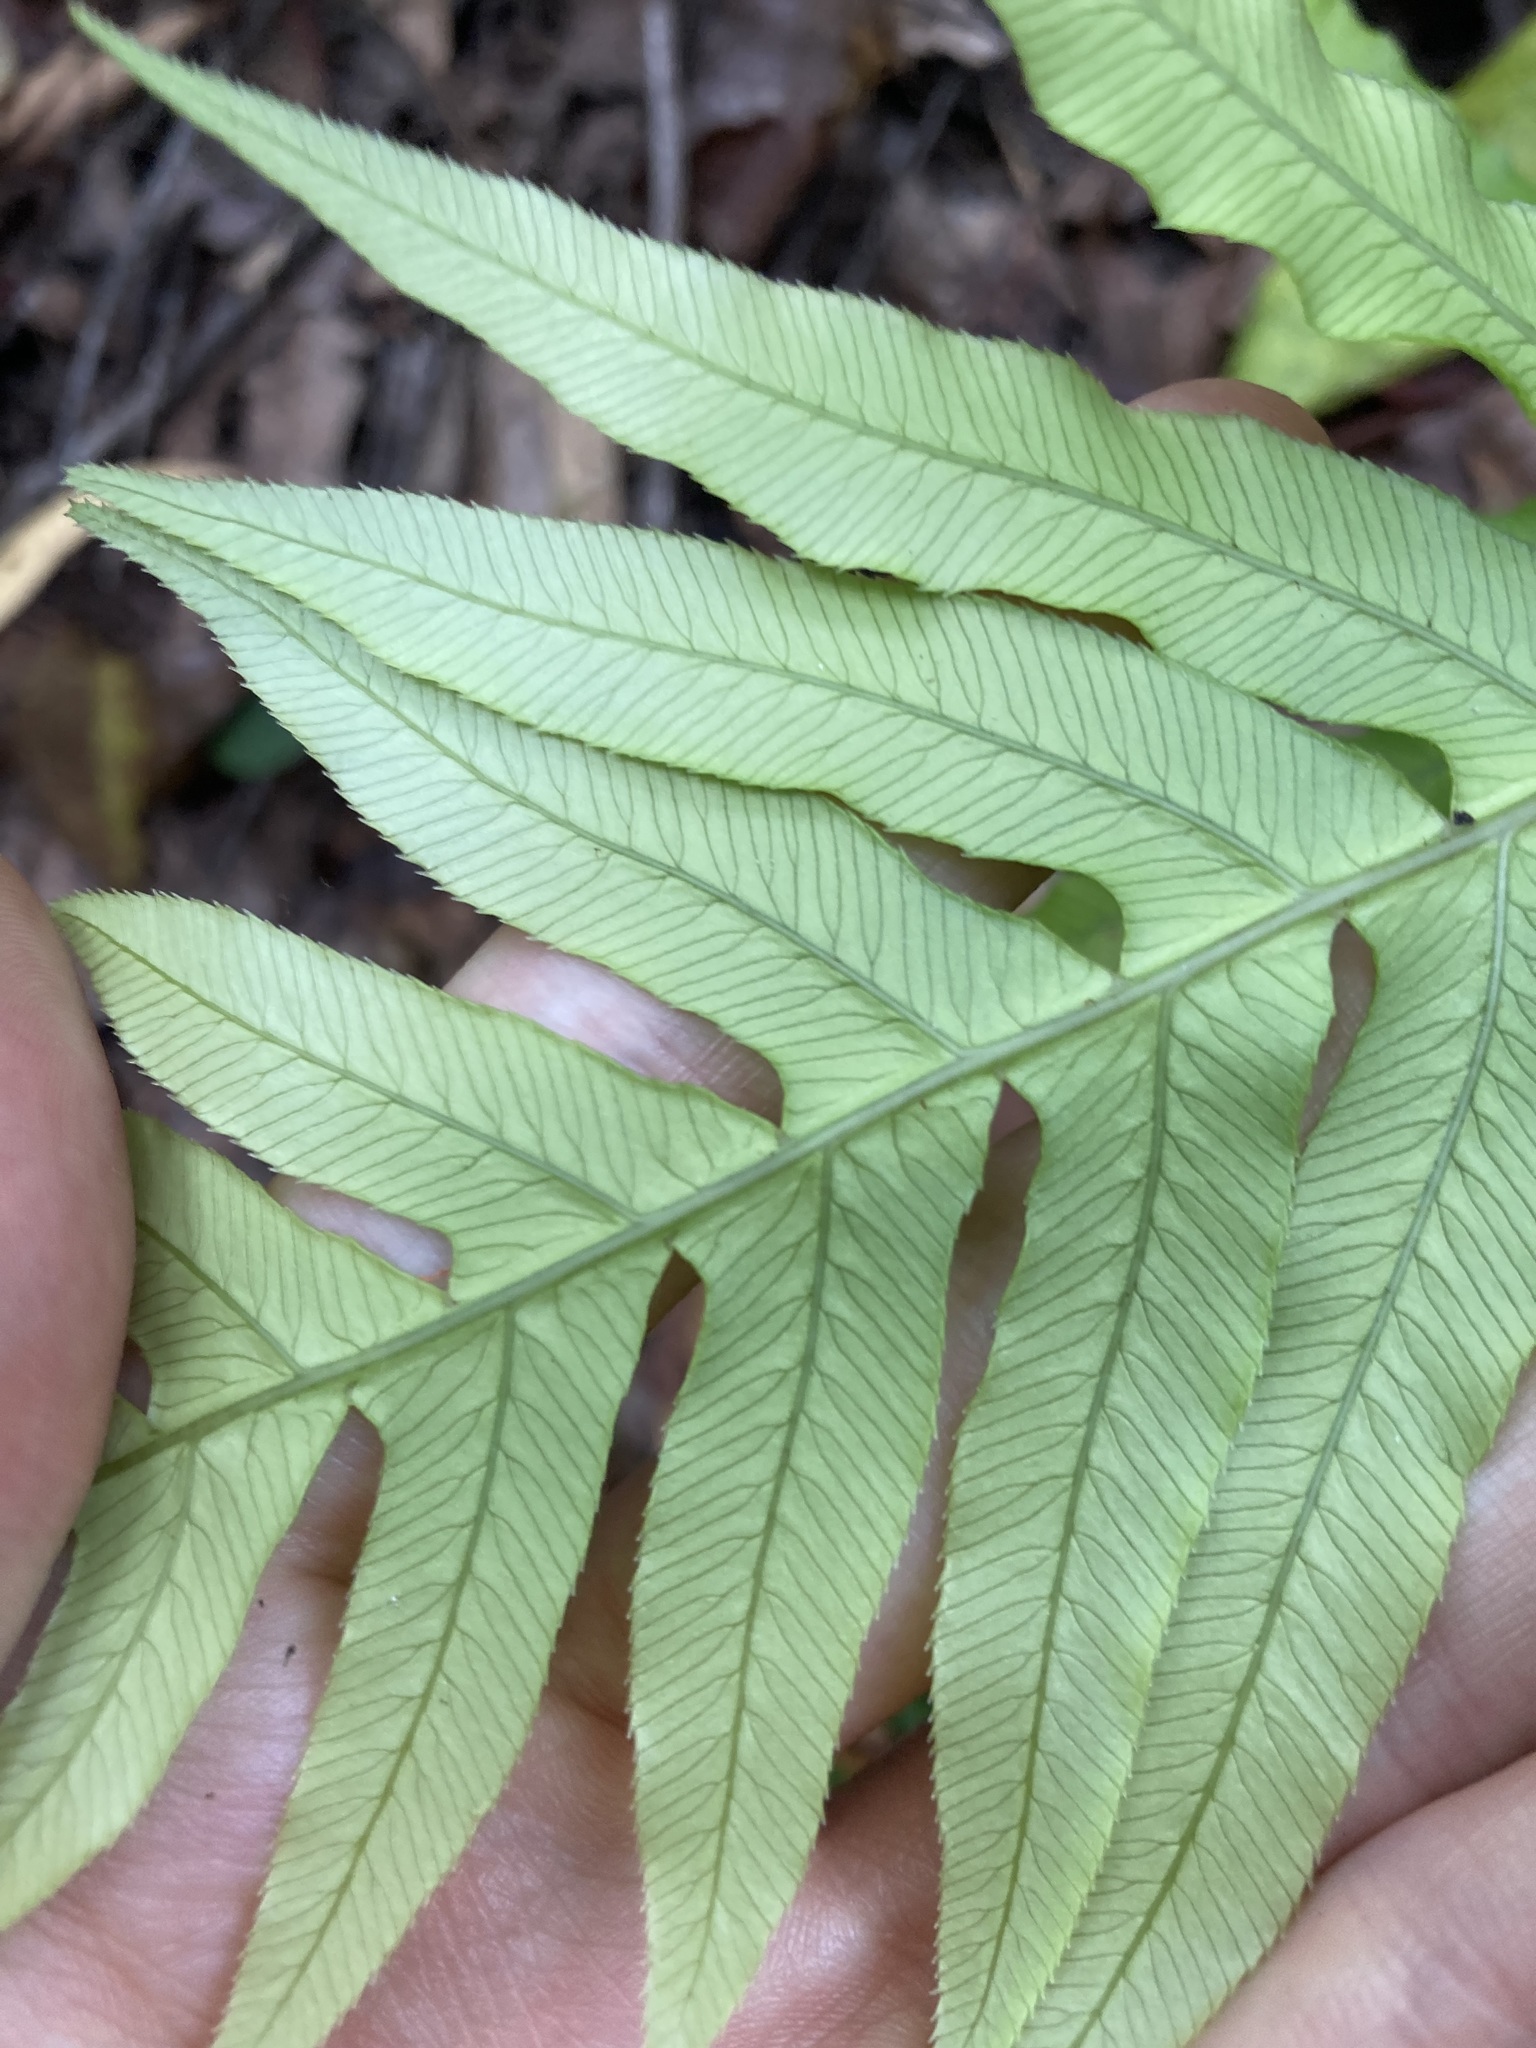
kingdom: Plantae
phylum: Tracheophyta
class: Polypodiopsida
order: Polypodiales
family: Blechnaceae
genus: Oceaniopteris
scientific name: Oceaniopteris cartilaginea
